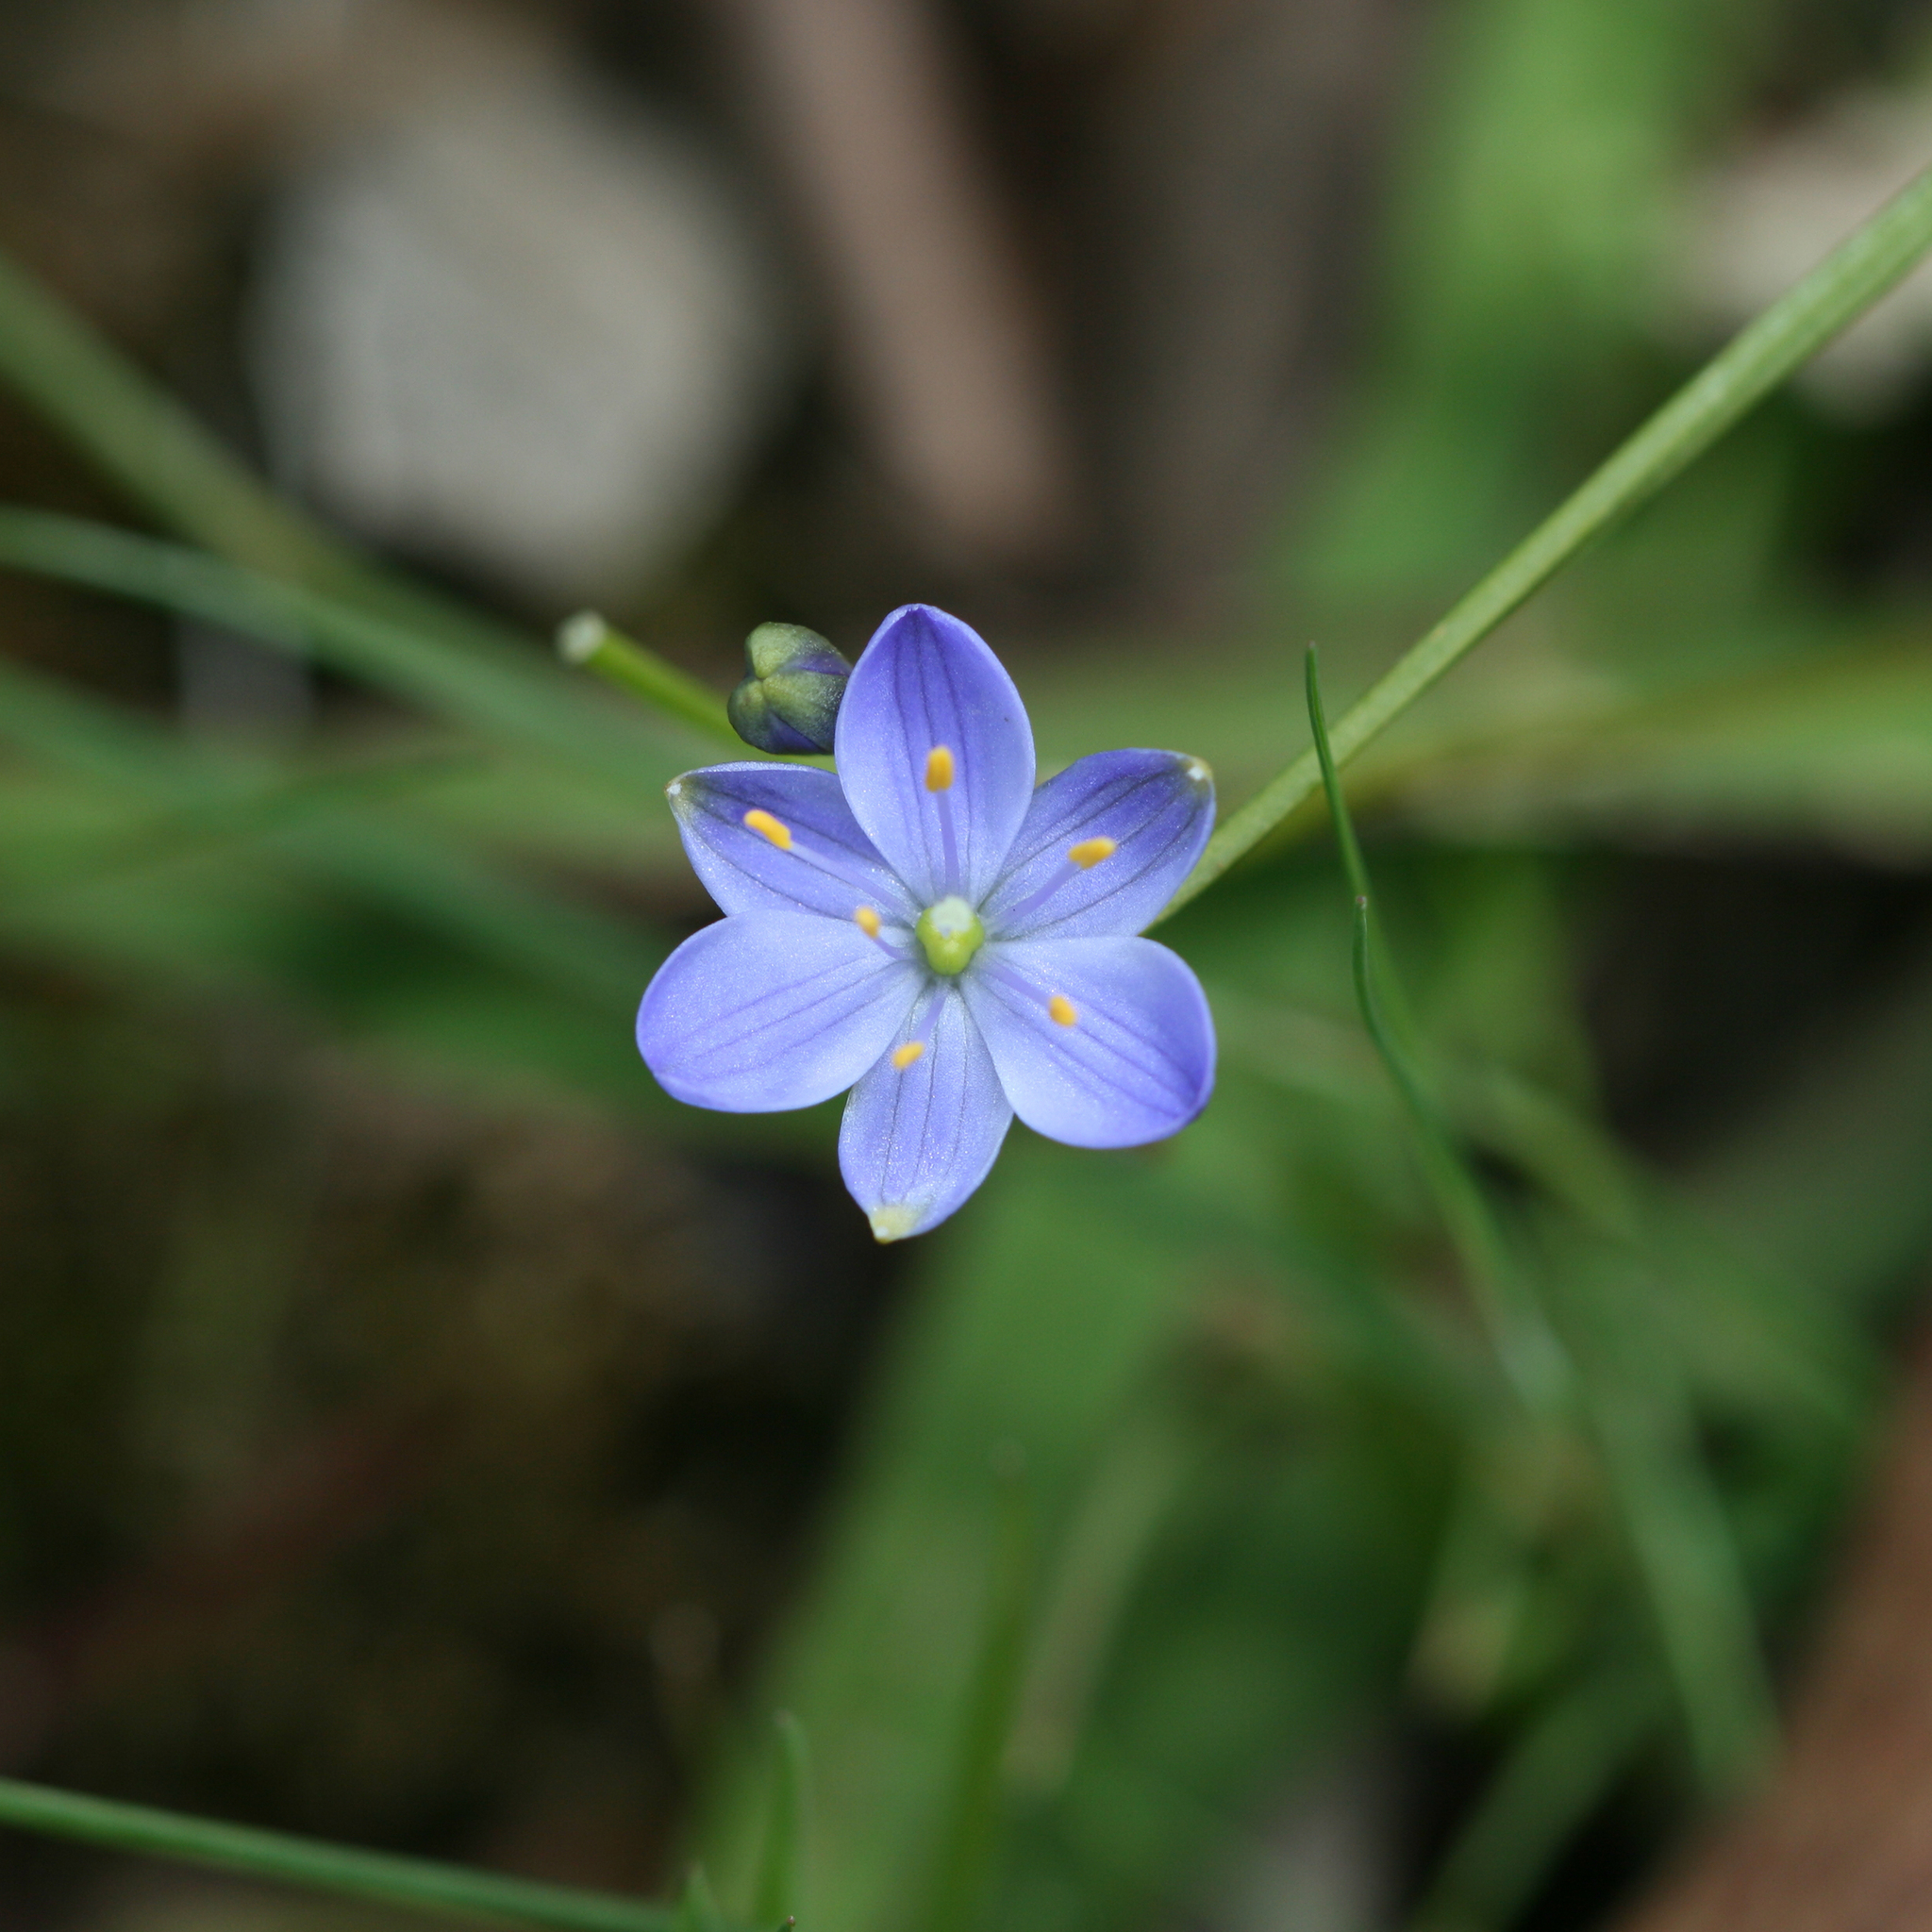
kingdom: Plantae
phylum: Tracheophyta
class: Liliopsida
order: Asparagales
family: Asphodelaceae
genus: Chamaescilla
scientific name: Chamaescilla corymbosa
